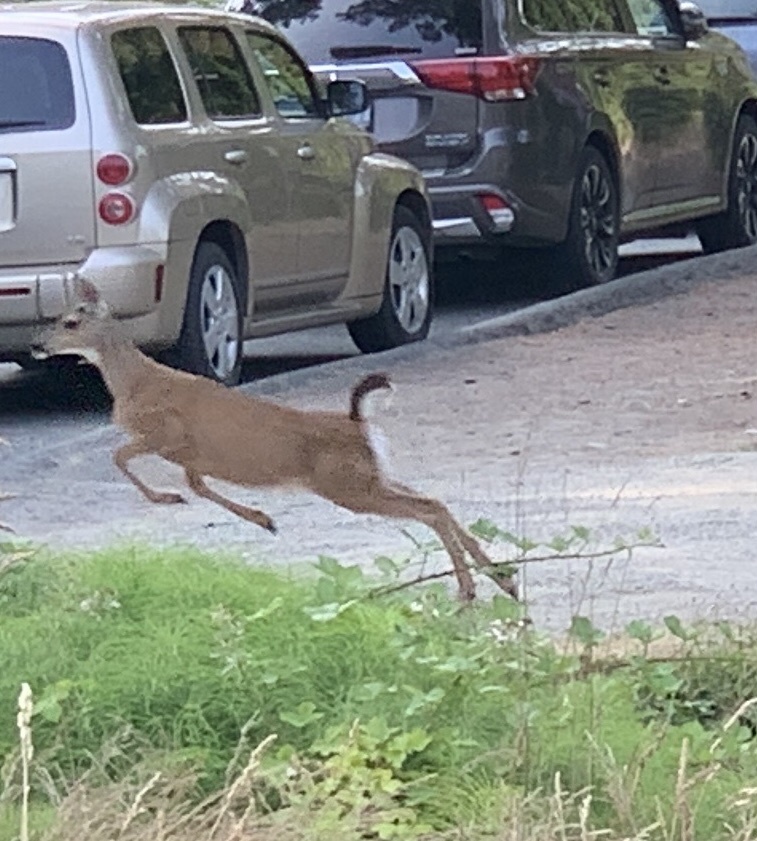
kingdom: Animalia
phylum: Chordata
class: Mammalia
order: Artiodactyla
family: Cervidae
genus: Odocoileus
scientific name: Odocoileus hemionus
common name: Mule deer
